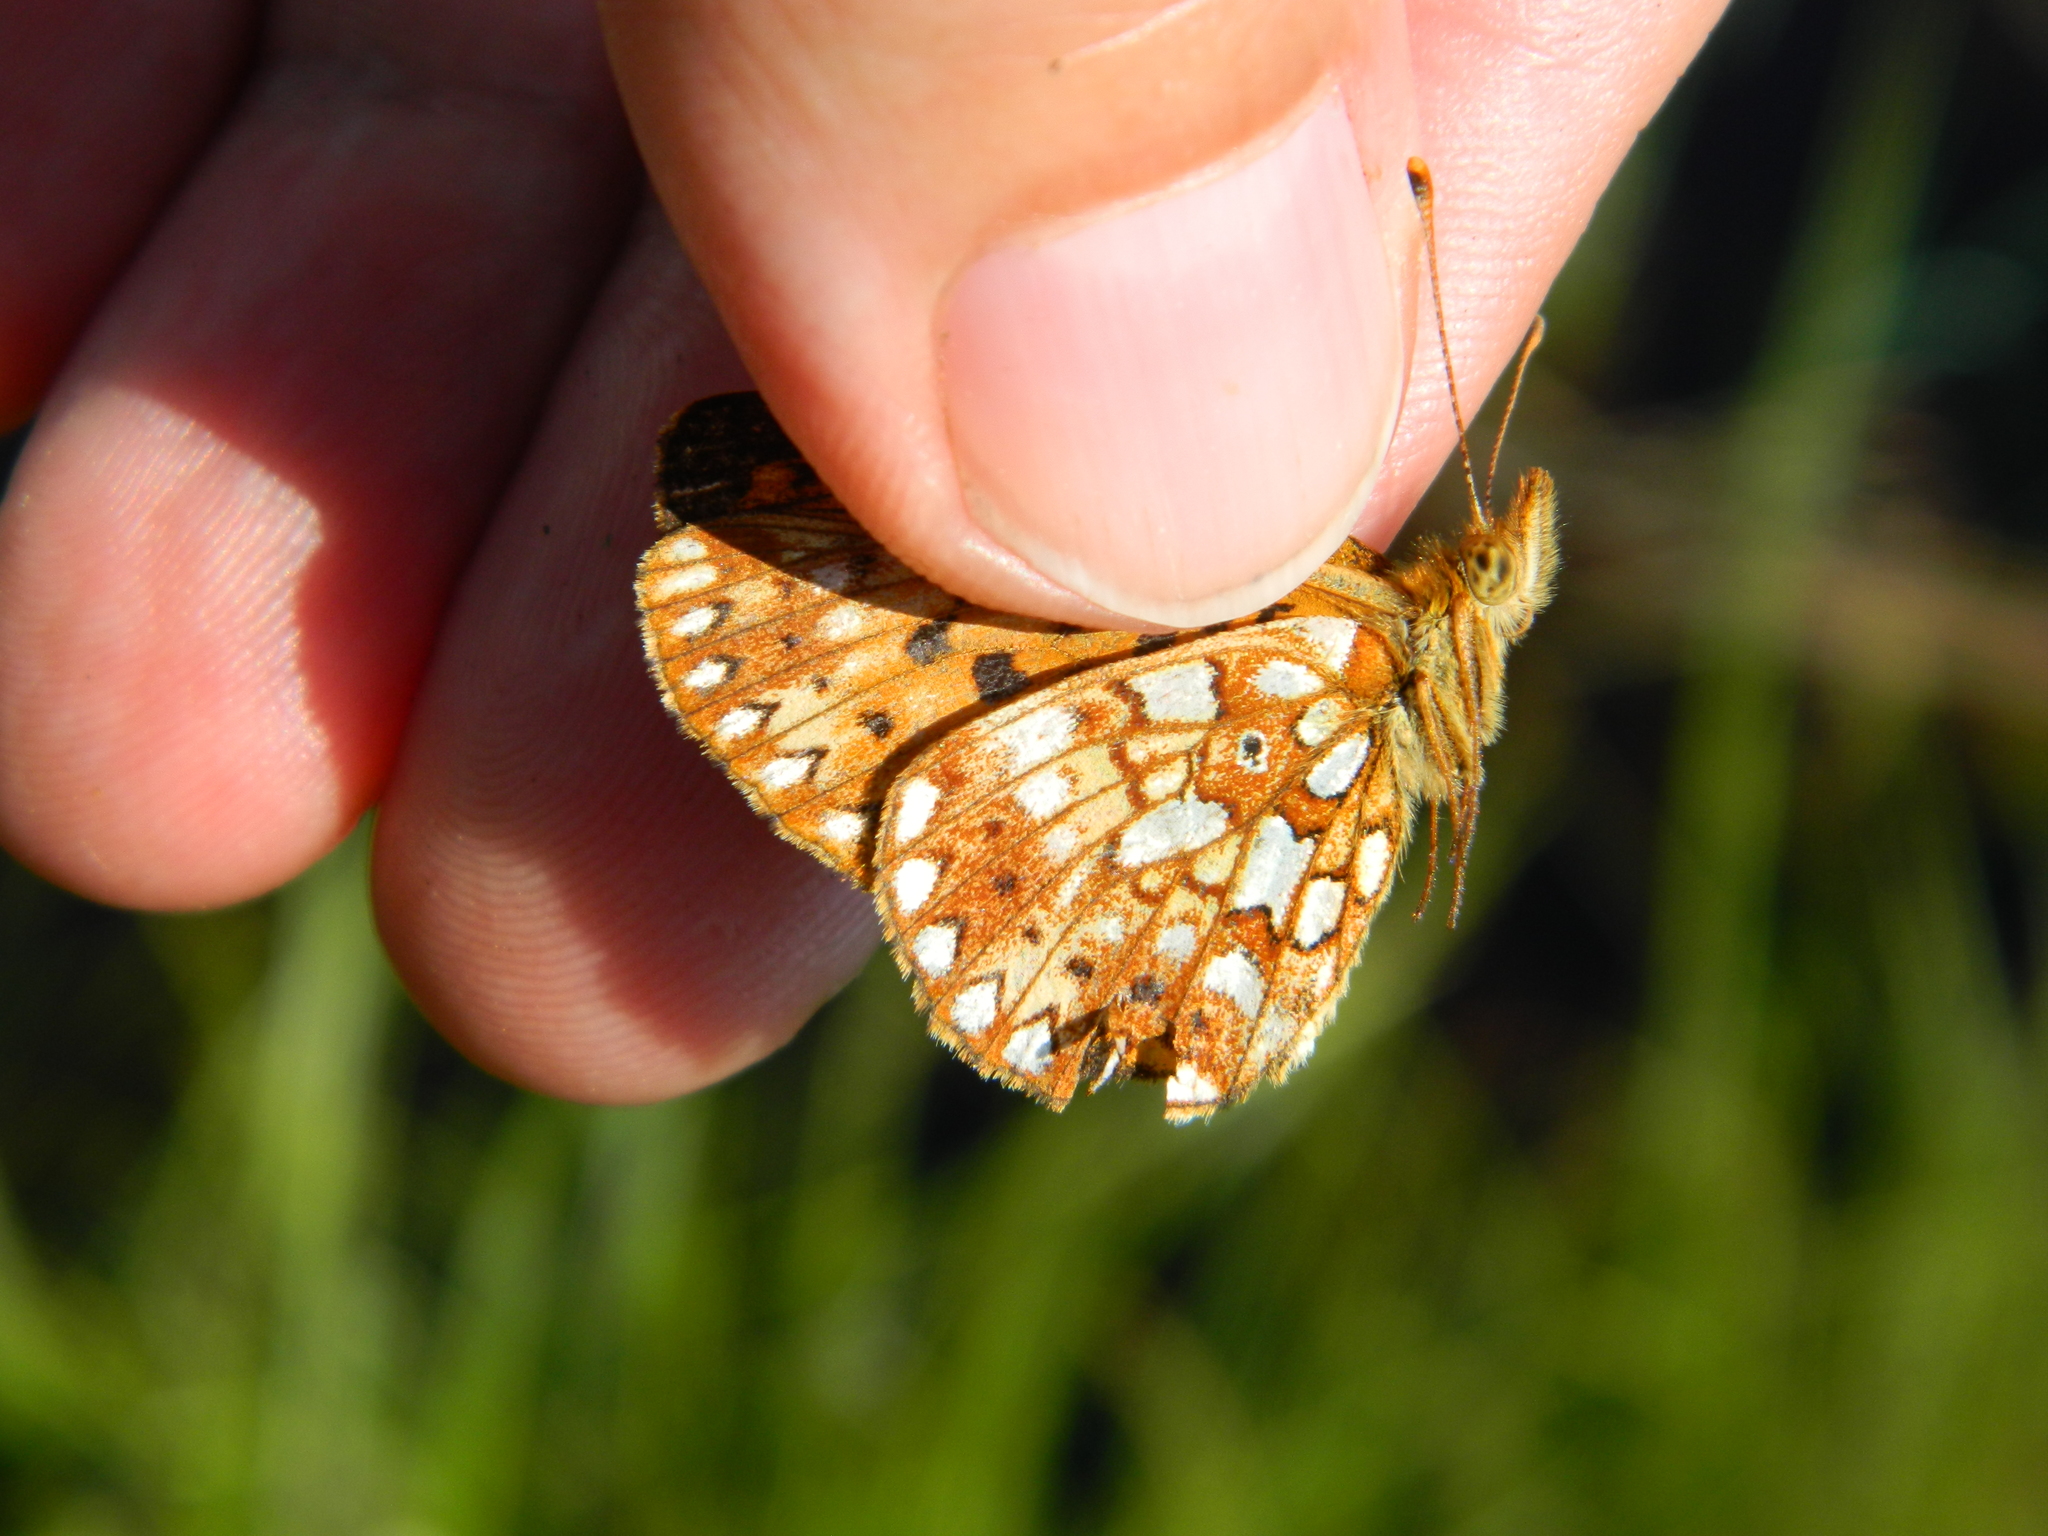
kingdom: Animalia
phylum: Arthropoda
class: Insecta
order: Lepidoptera
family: Nymphalidae
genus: Boloria
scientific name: Boloria
